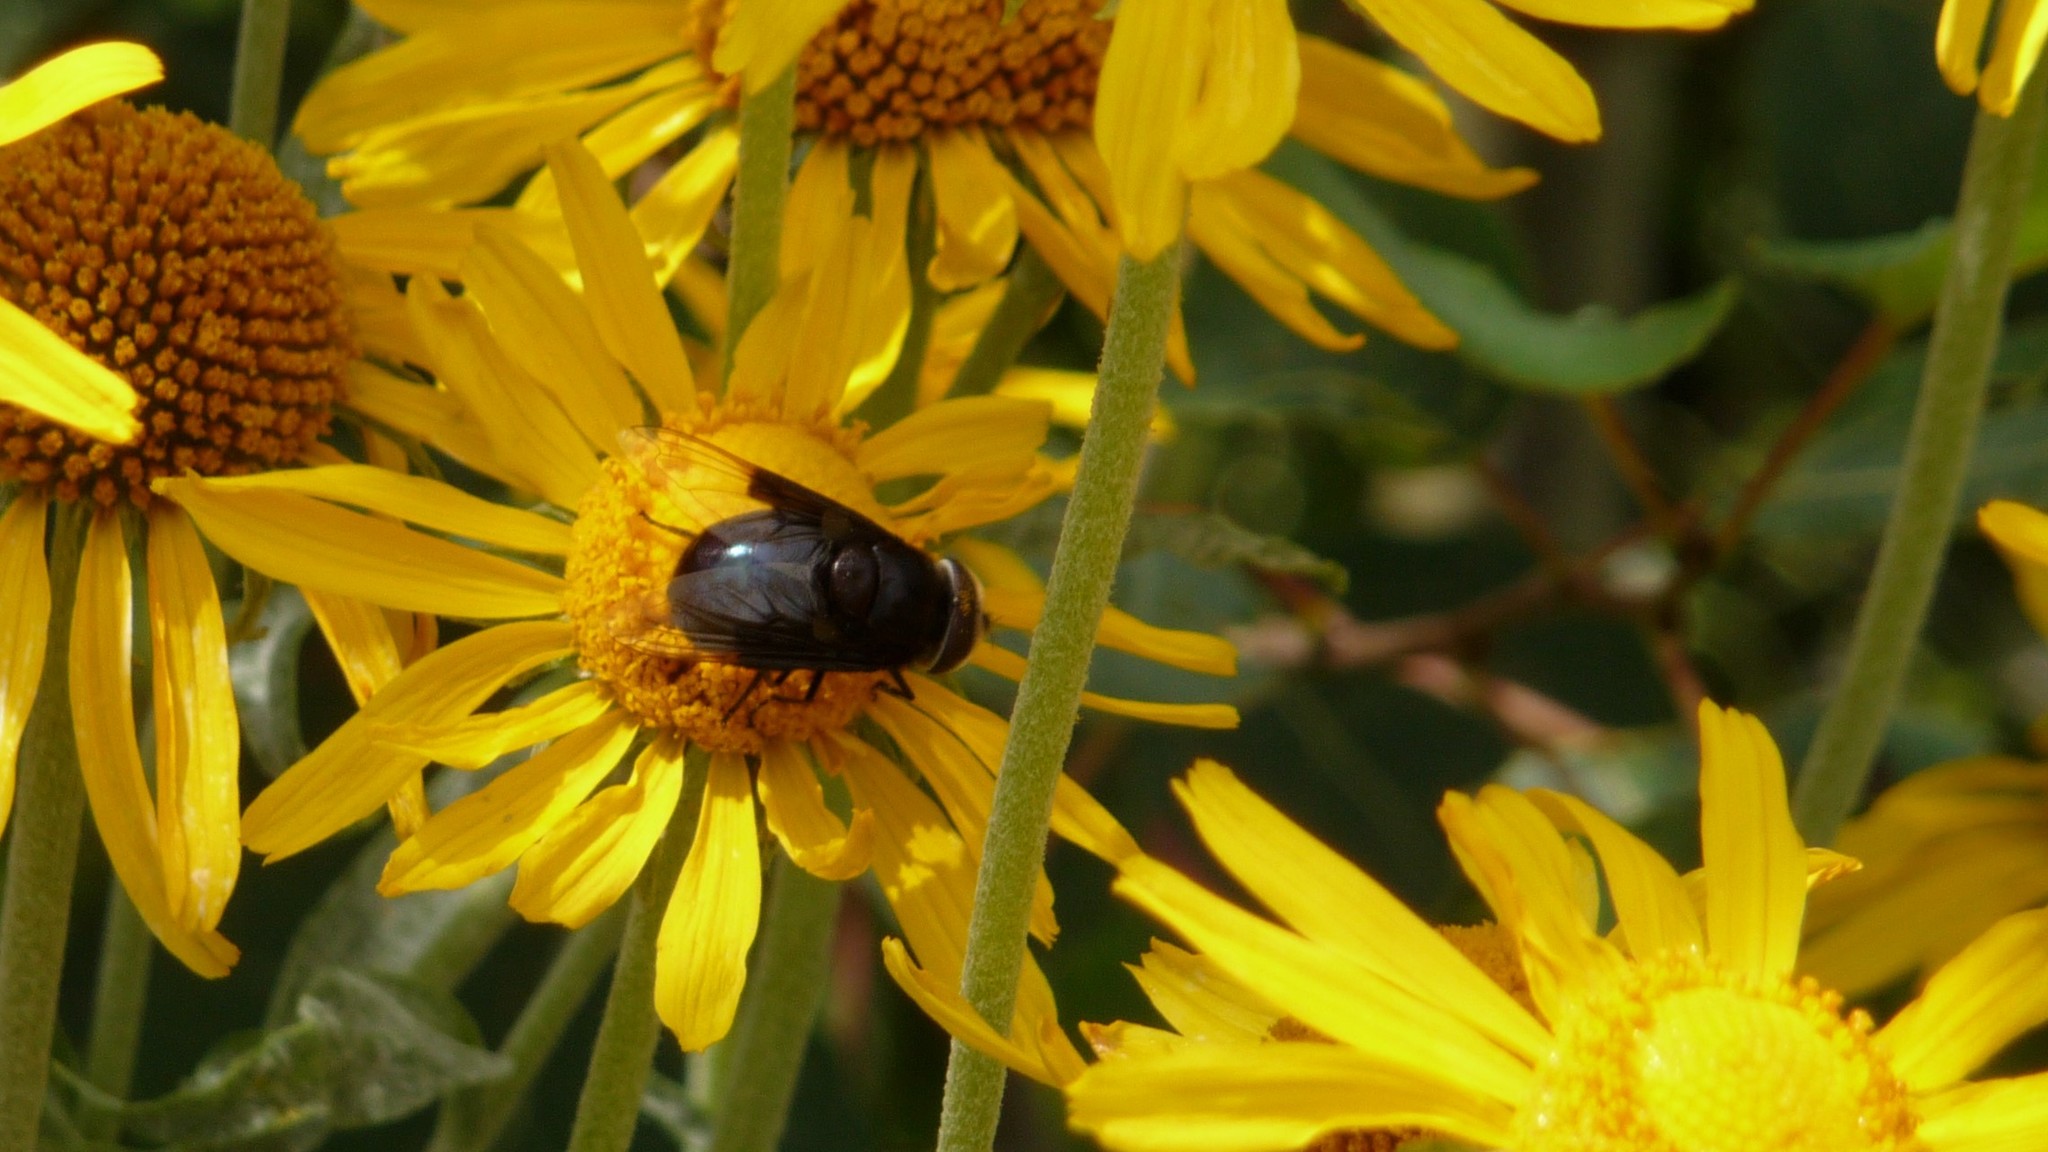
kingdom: Animalia
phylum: Arthropoda
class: Insecta
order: Diptera
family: Syrphidae
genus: Copestylum
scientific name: Copestylum mexicanum
